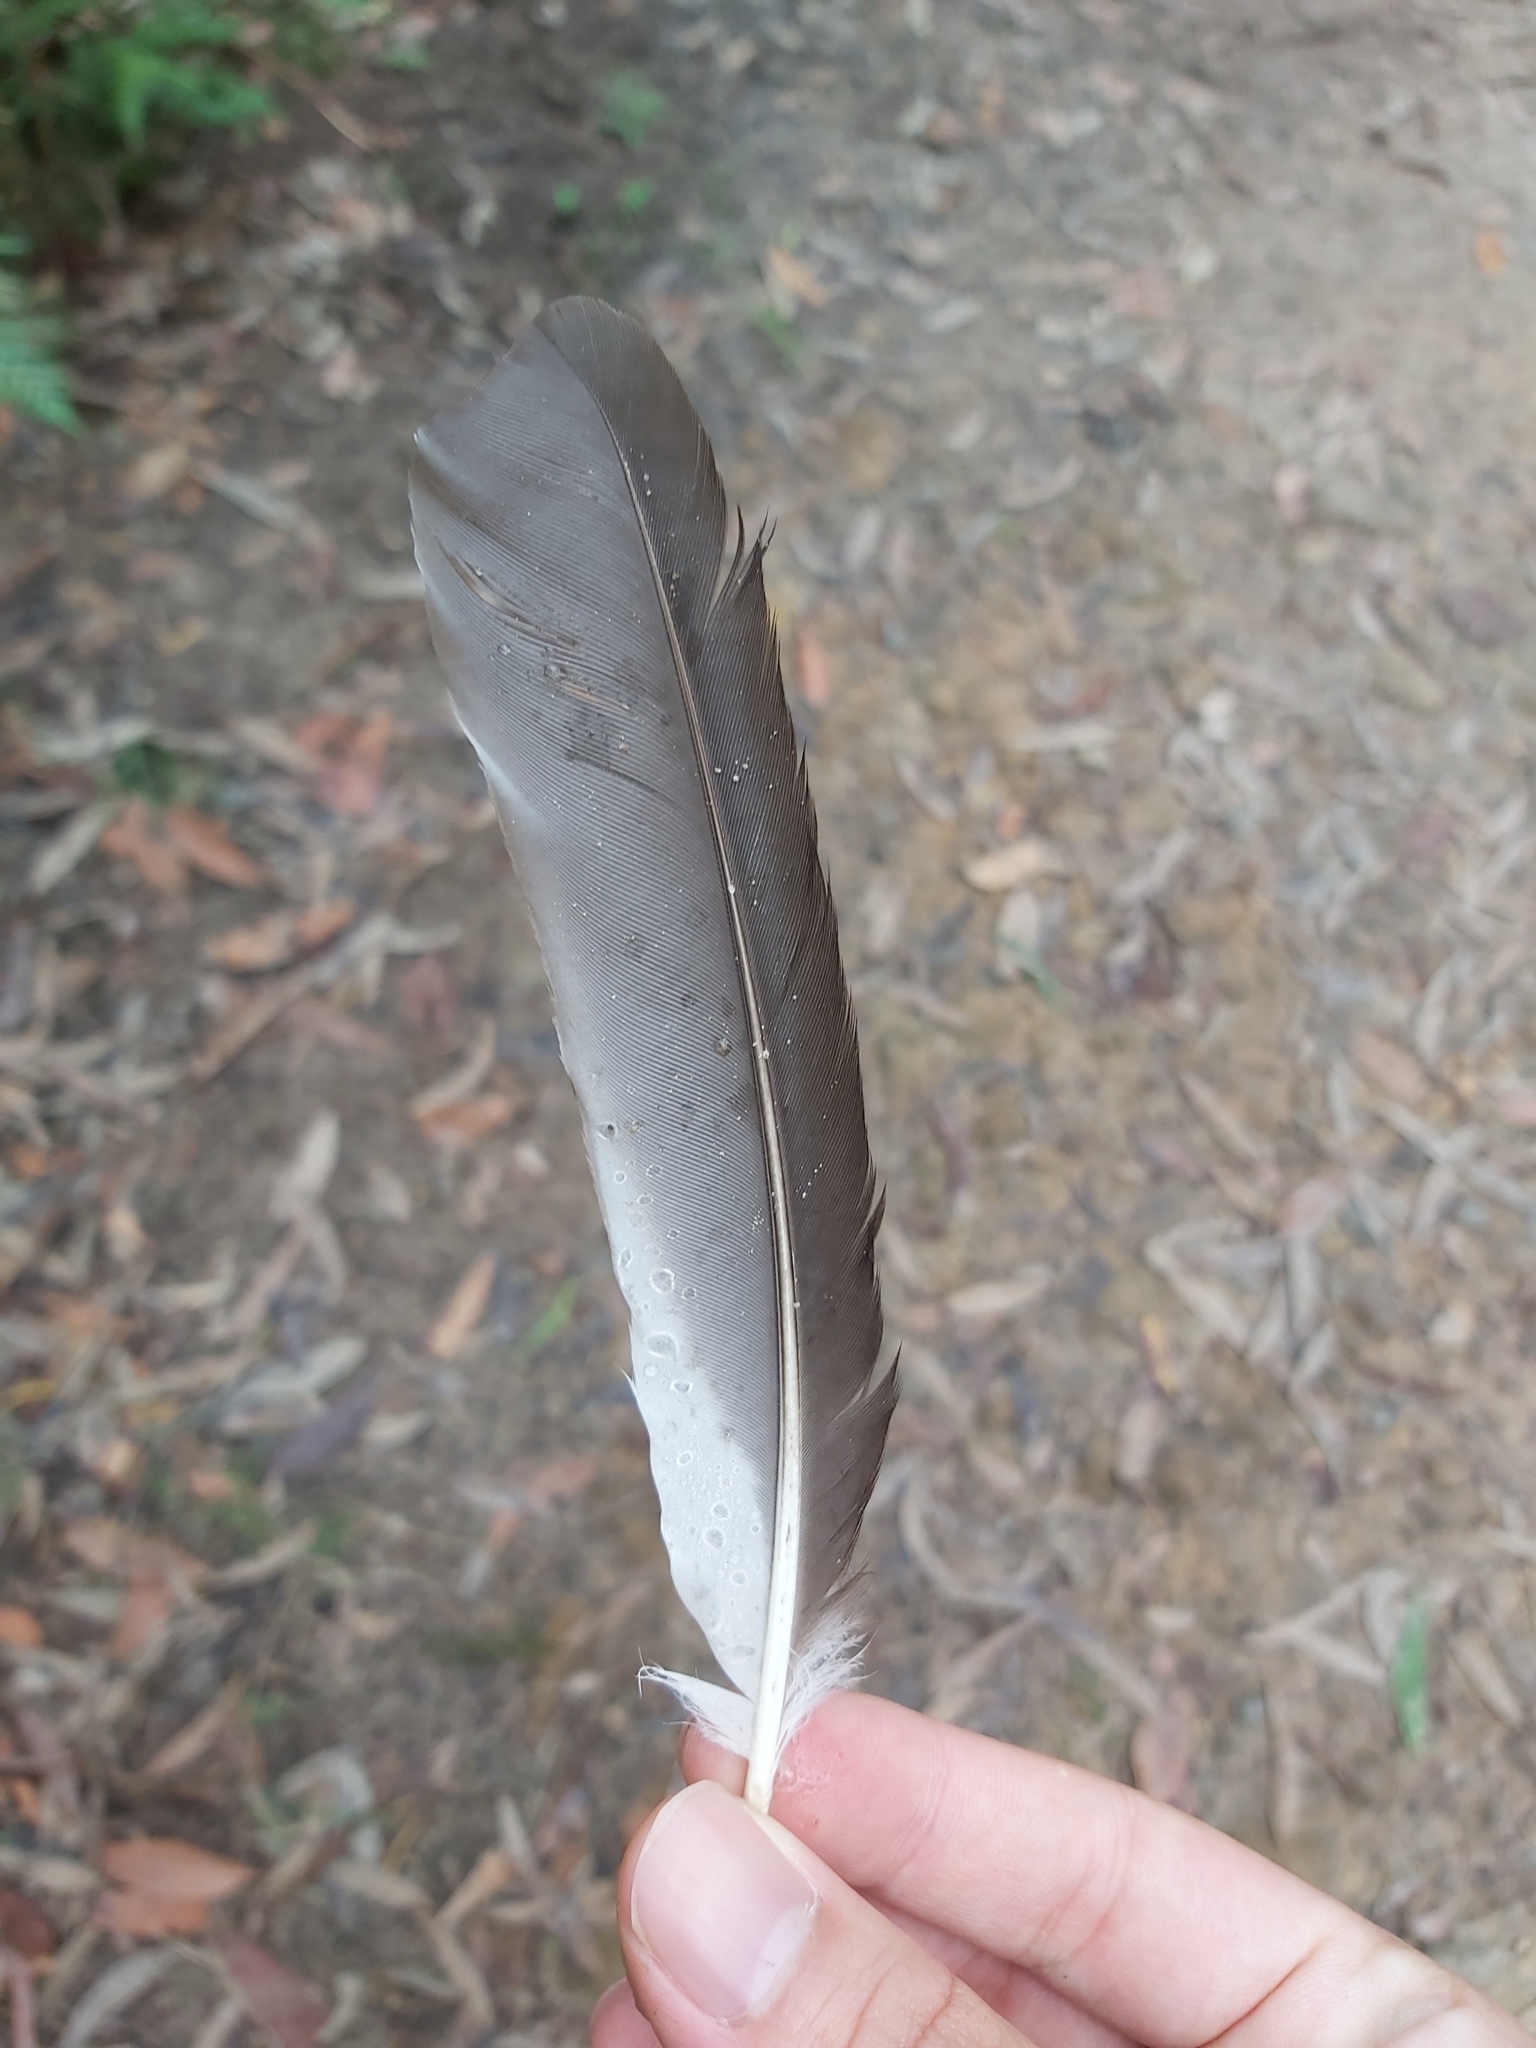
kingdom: Animalia
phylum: Chordata
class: Aves
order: Coraciiformes
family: Alcedinidae
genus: Dacelo
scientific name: Dacelo novaeguineae
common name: Laughing kookaburra
